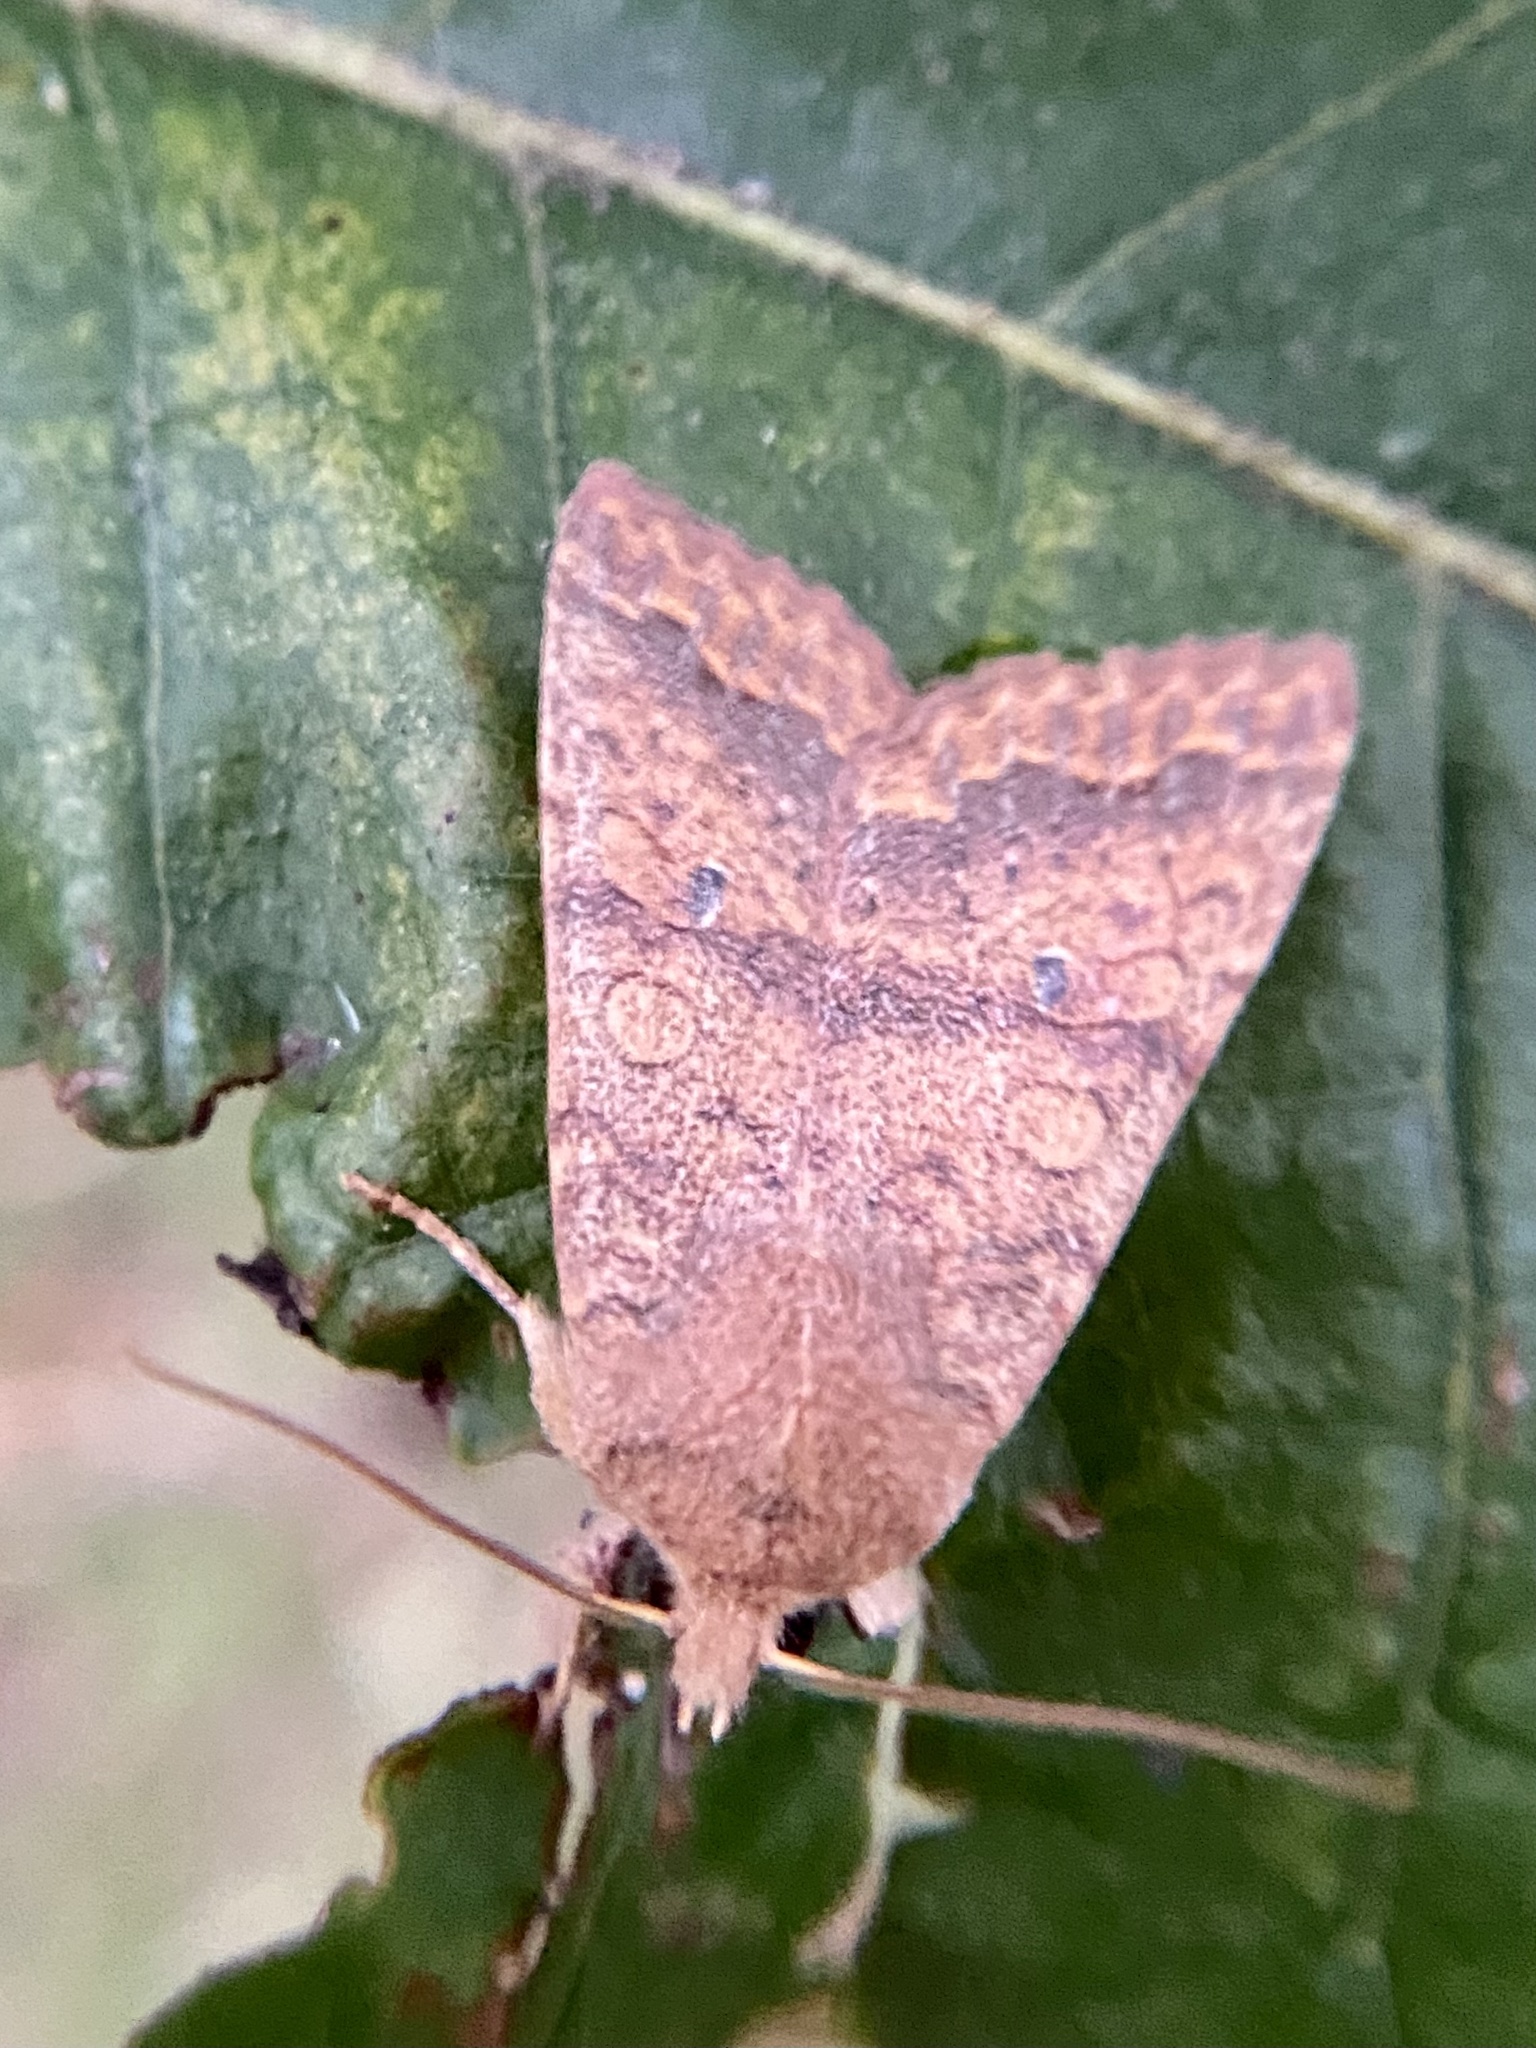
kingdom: Animalia
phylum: Arthropoda
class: Insecta
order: Lepidoptera
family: Noctuidae
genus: Agrochola
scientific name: Agrochola bicolorago
